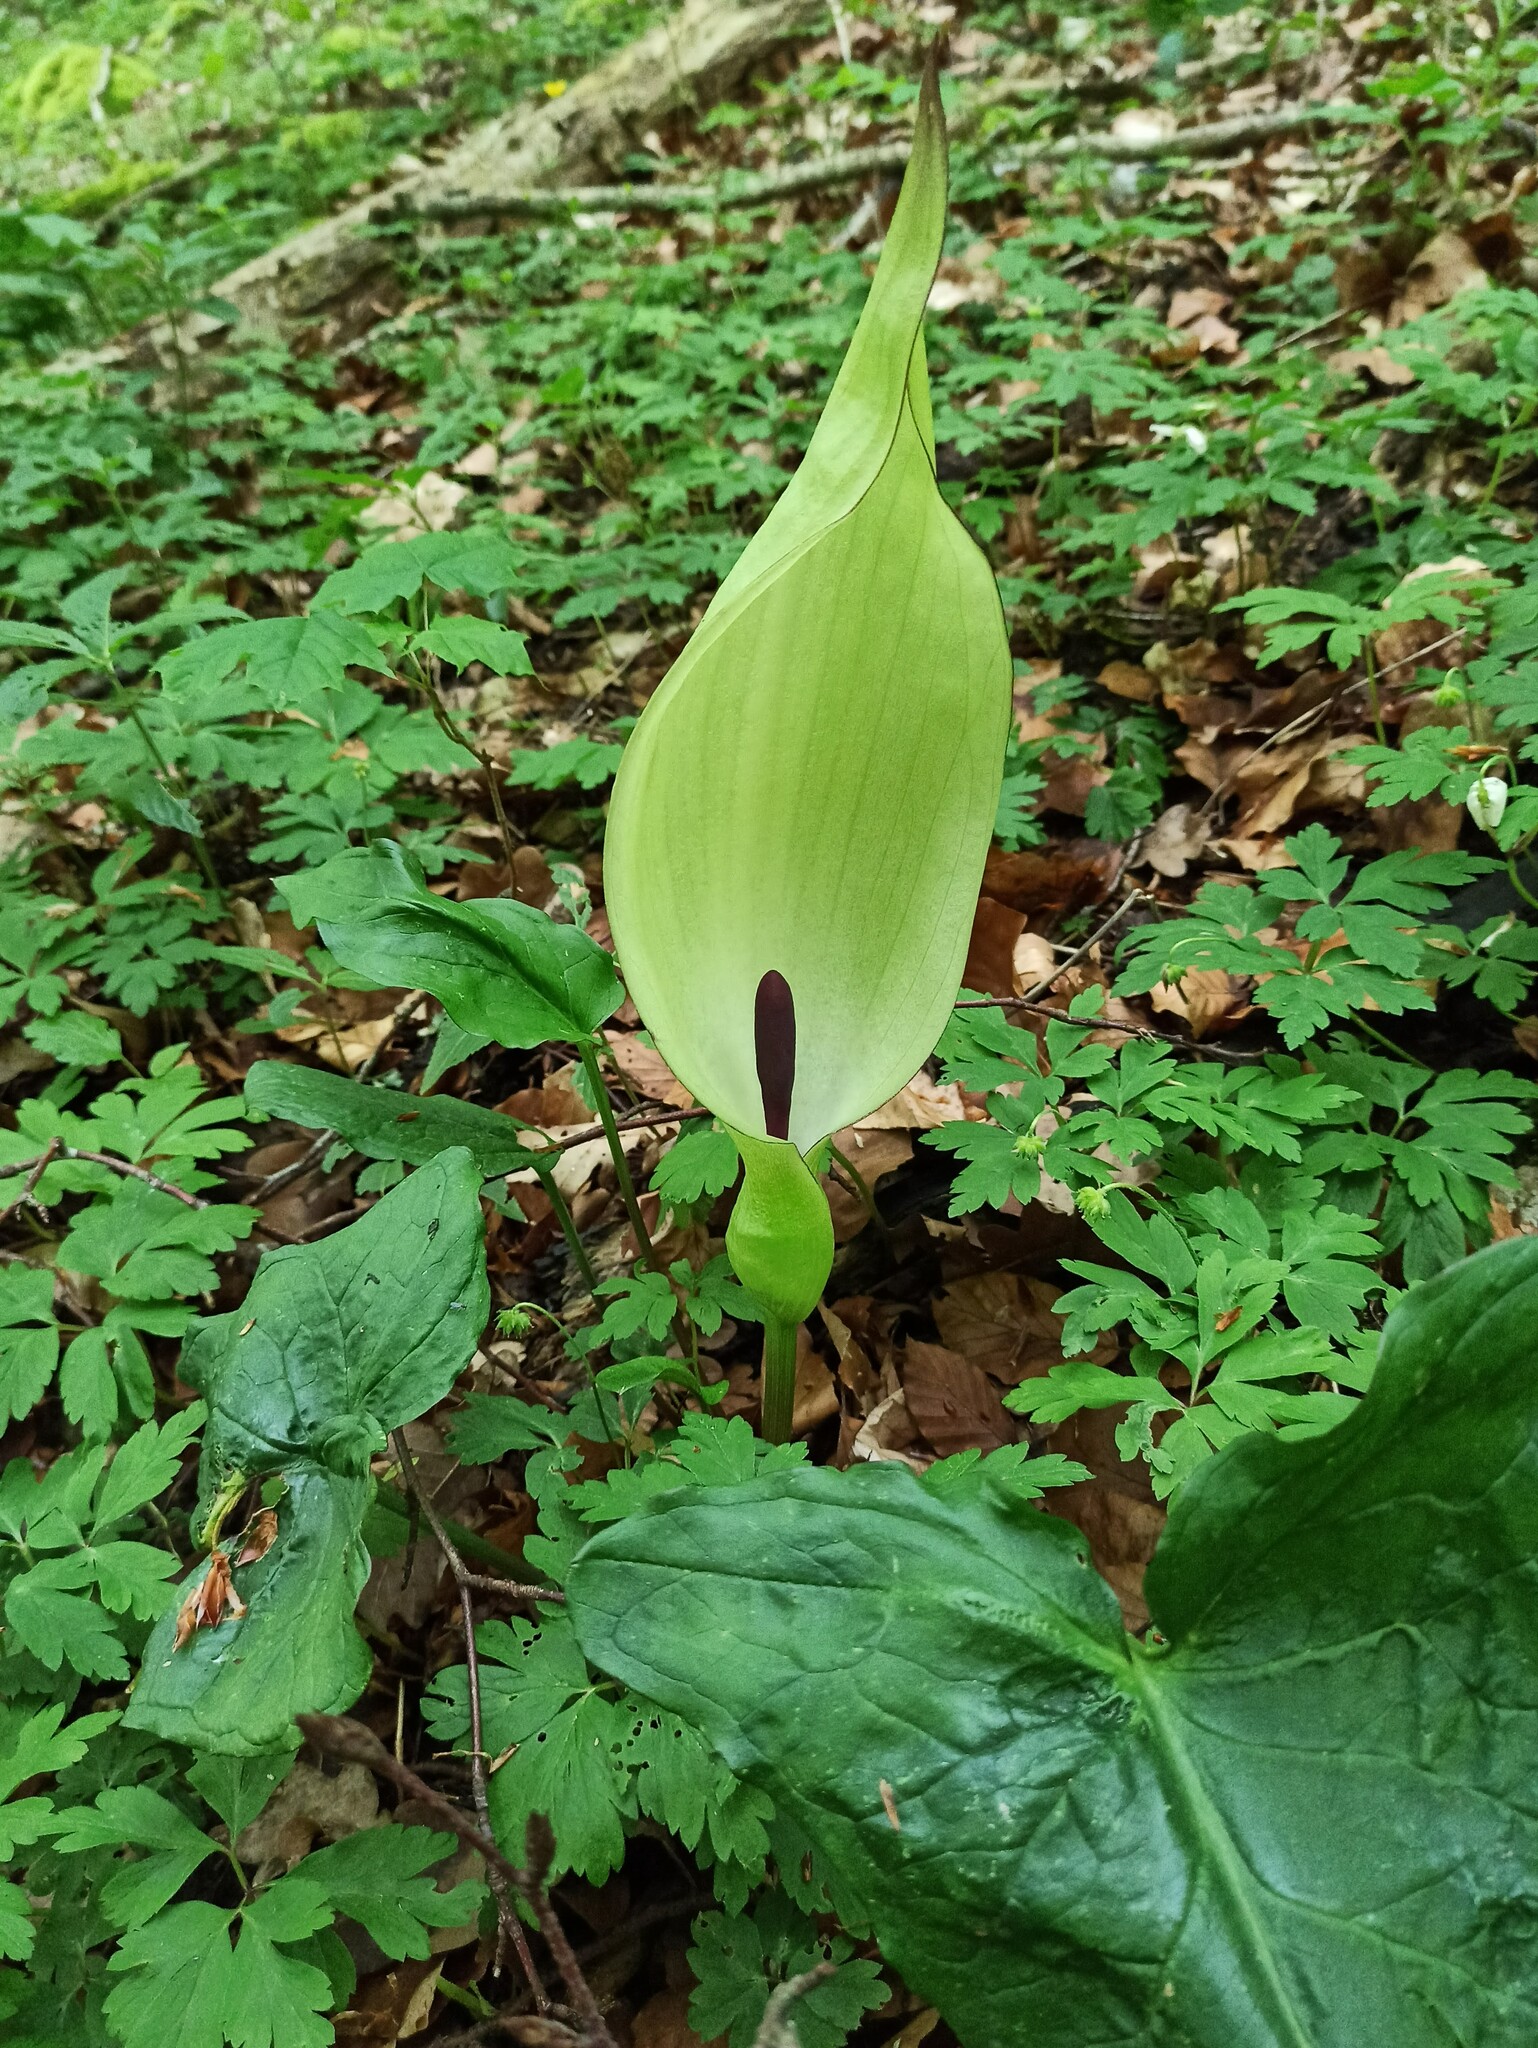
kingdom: Plantae
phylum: Tracheophyta
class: Liliopsida
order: Alismatales
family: Araceae
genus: Arum
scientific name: Arum maculatum
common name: Lords-and-ladies
